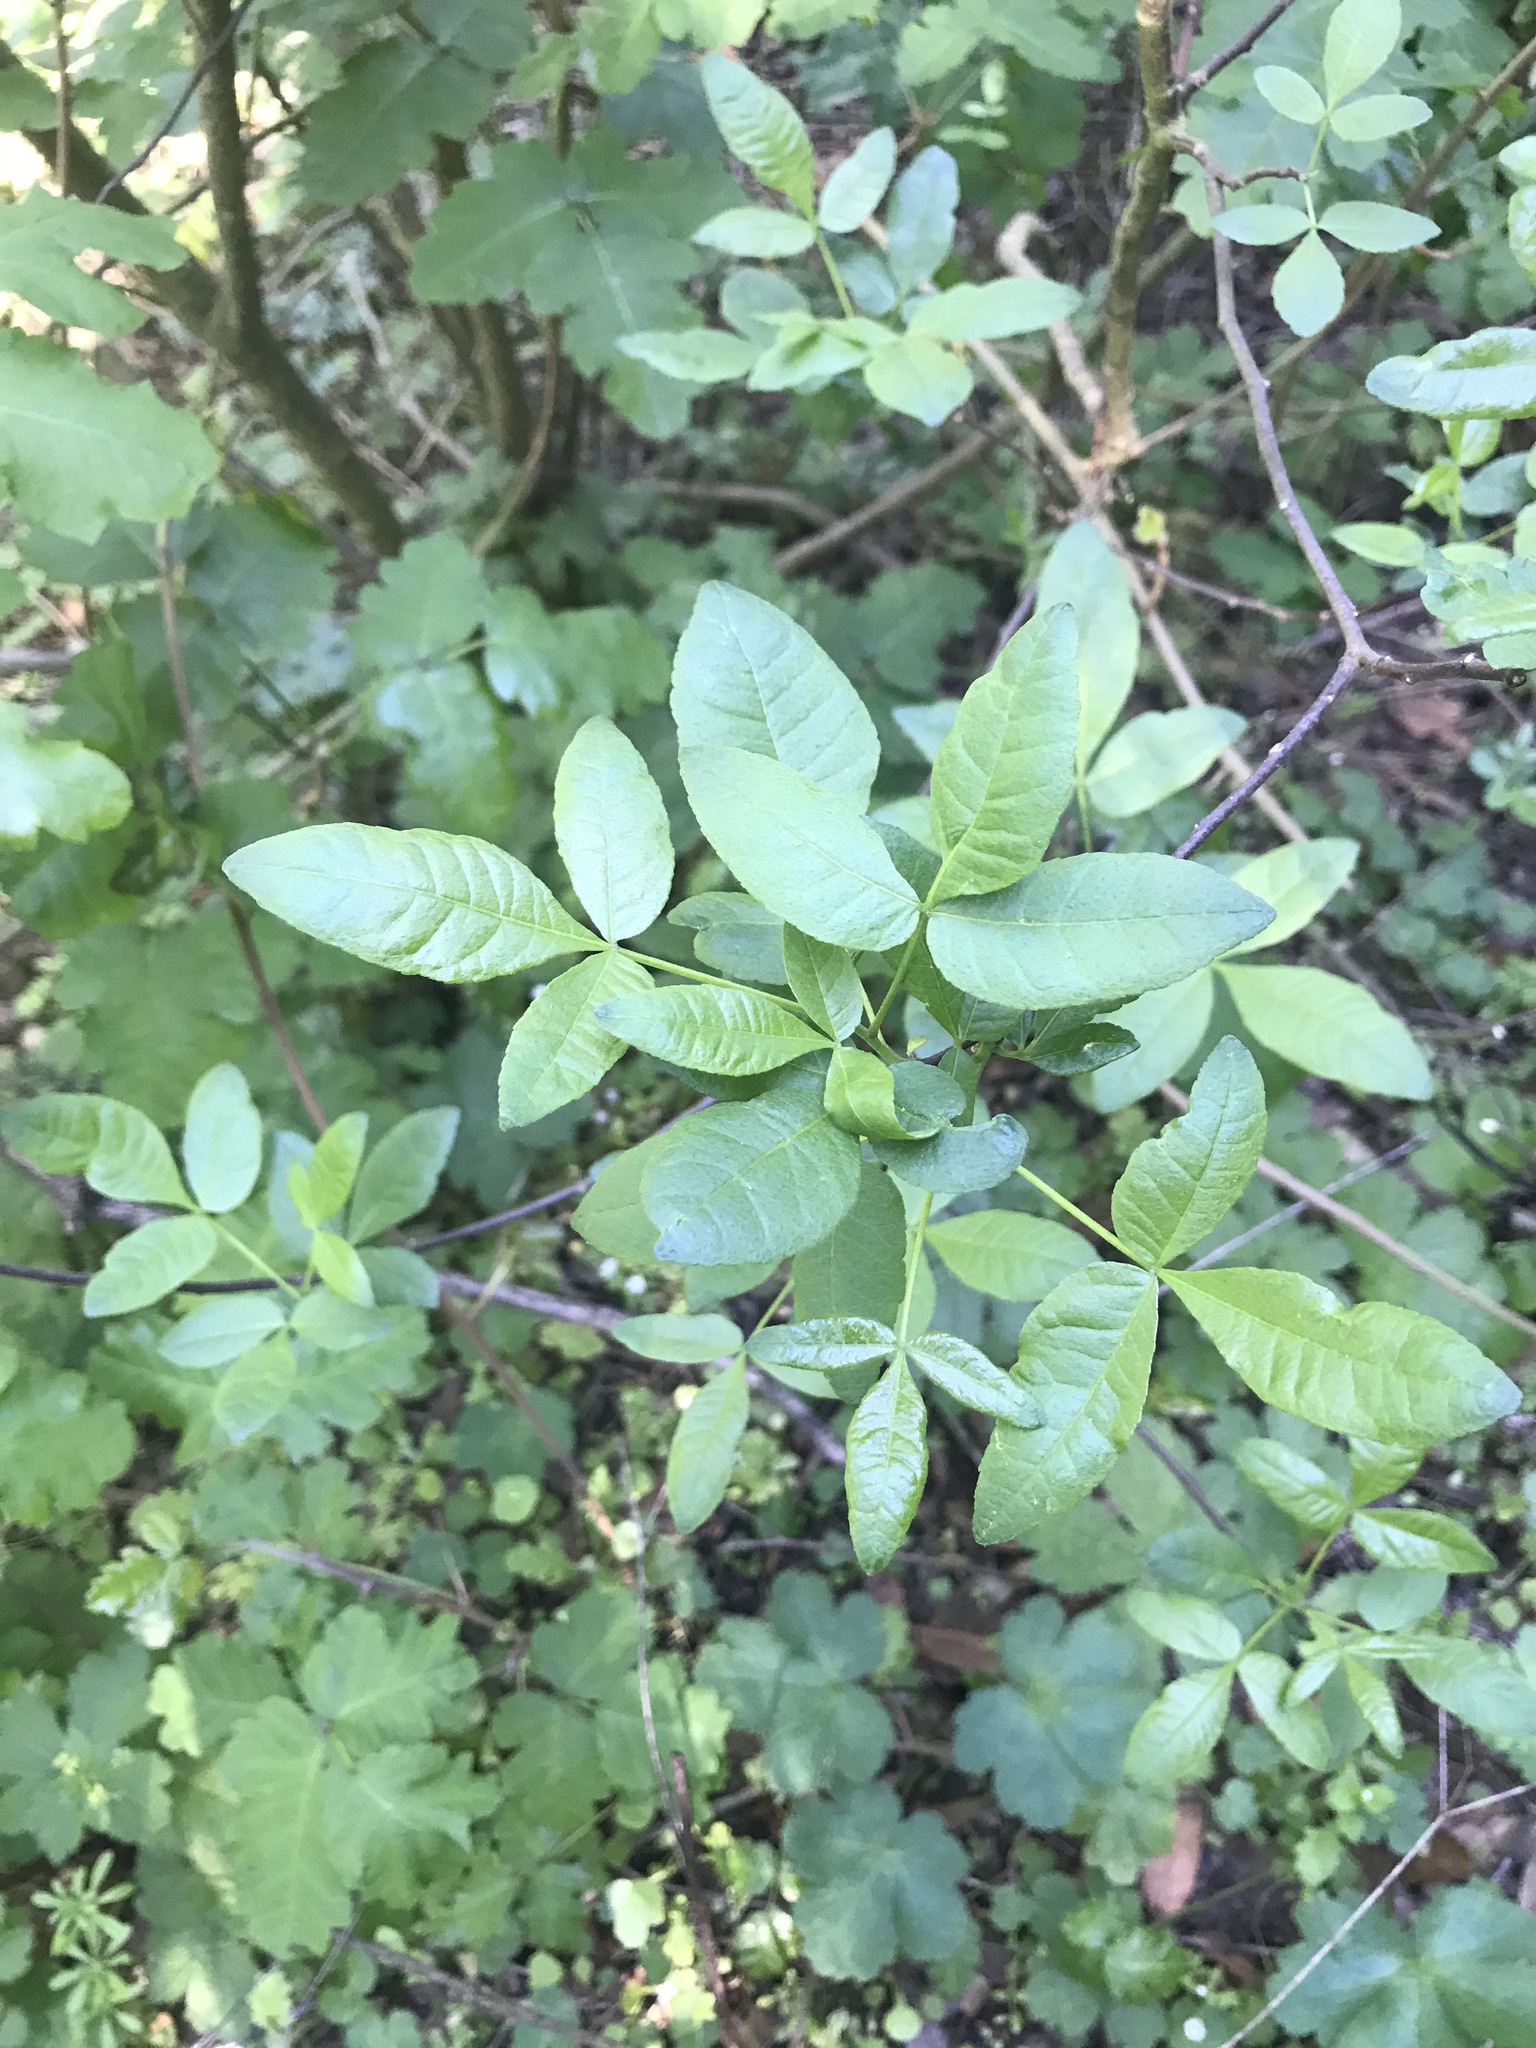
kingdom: Plantae
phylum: Tracheophyta
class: Magnoliopsida
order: Sapindales
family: Rutaceae
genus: Ptelea
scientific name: Ptelea crenulata
